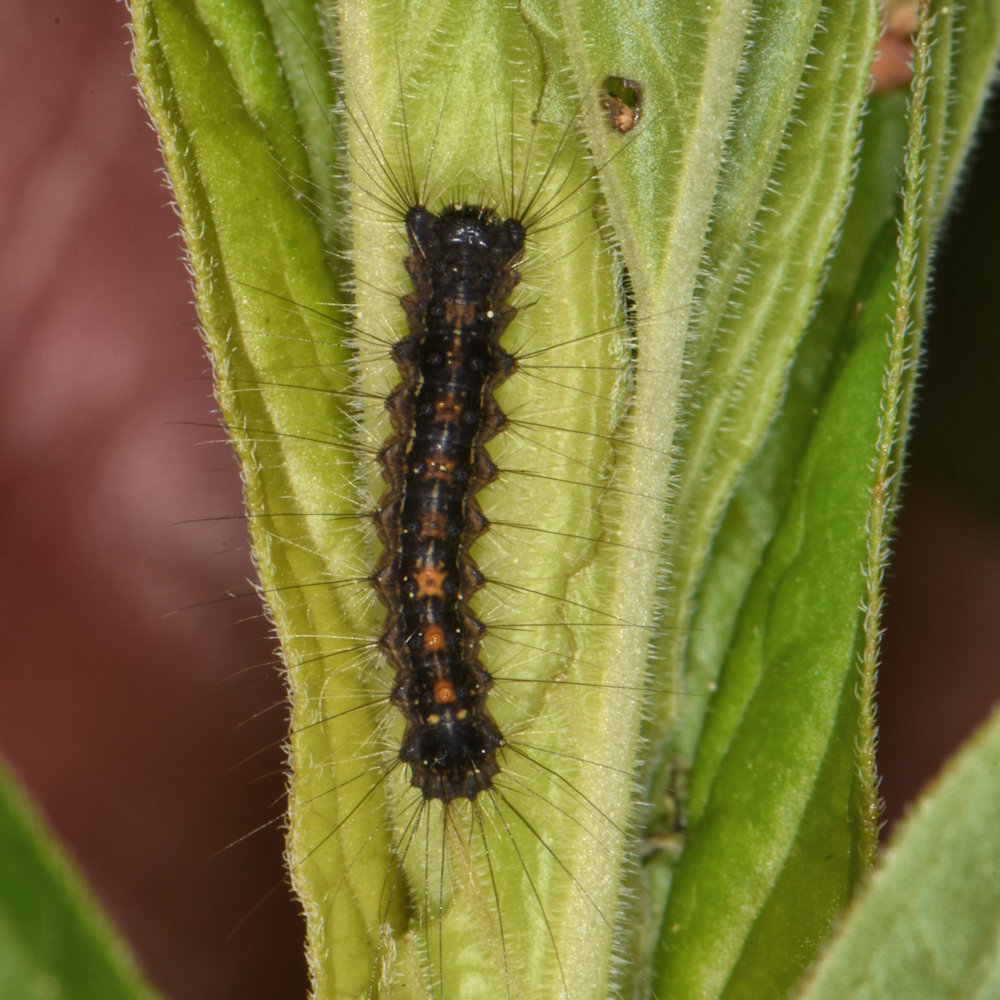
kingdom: Animalia
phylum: Arthropoda
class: Insecta
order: Lepidoptera
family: Erebidae
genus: Lymantria
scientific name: Lymantria dispar
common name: Gypsy moth
